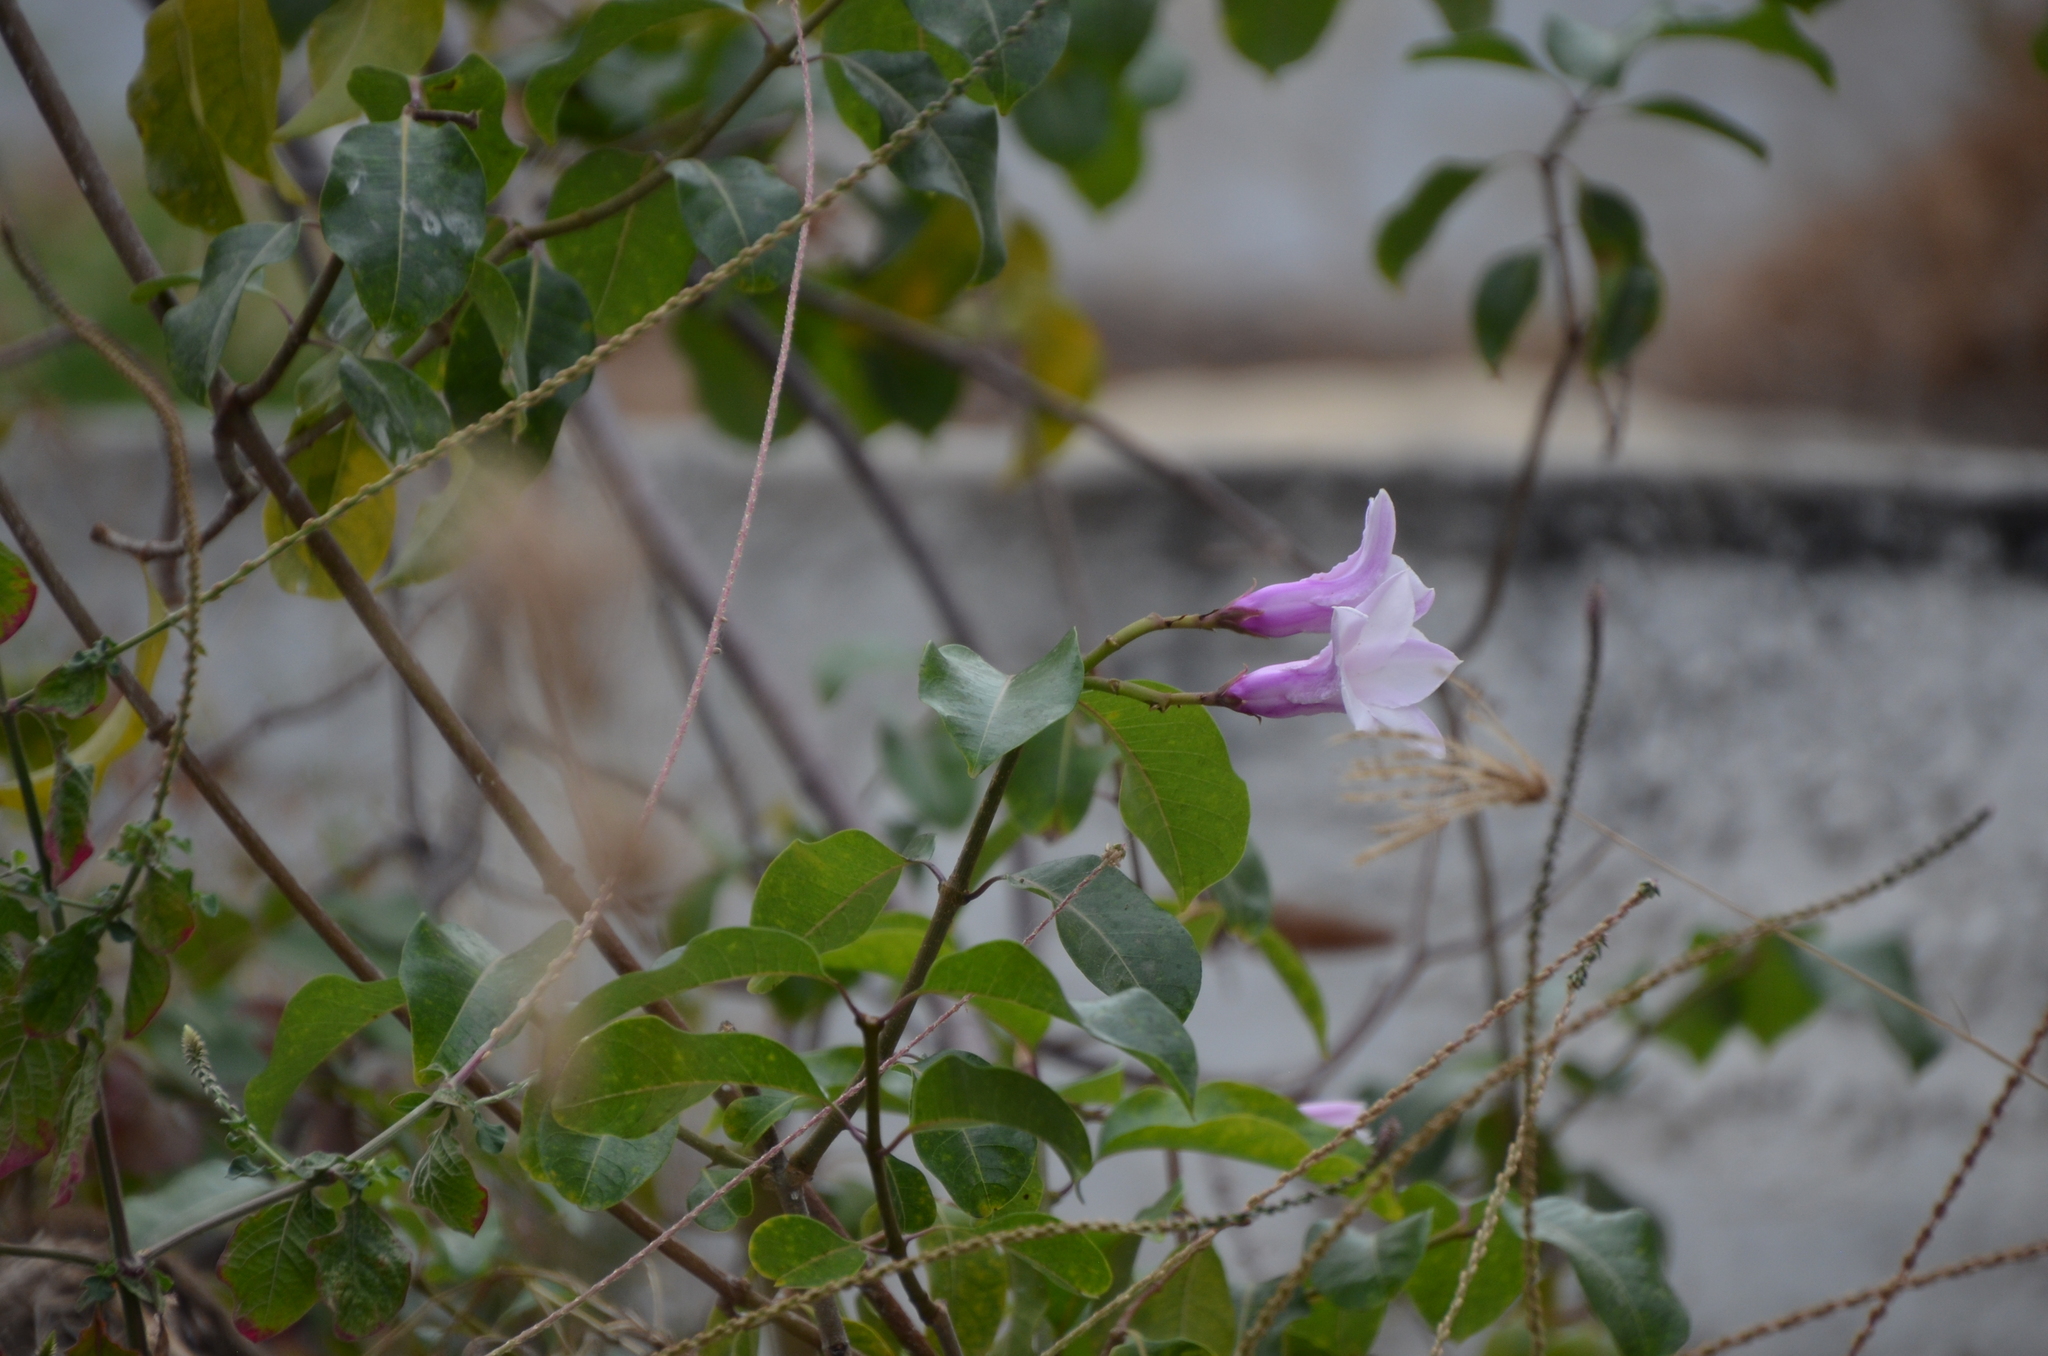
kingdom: Plantae
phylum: Tracheophyta
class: Magnoliopsida
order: Gentianales
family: Apocynaceae
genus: Cryptostegia
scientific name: Cryptostegia grandiflora
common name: Palay rubbervine
